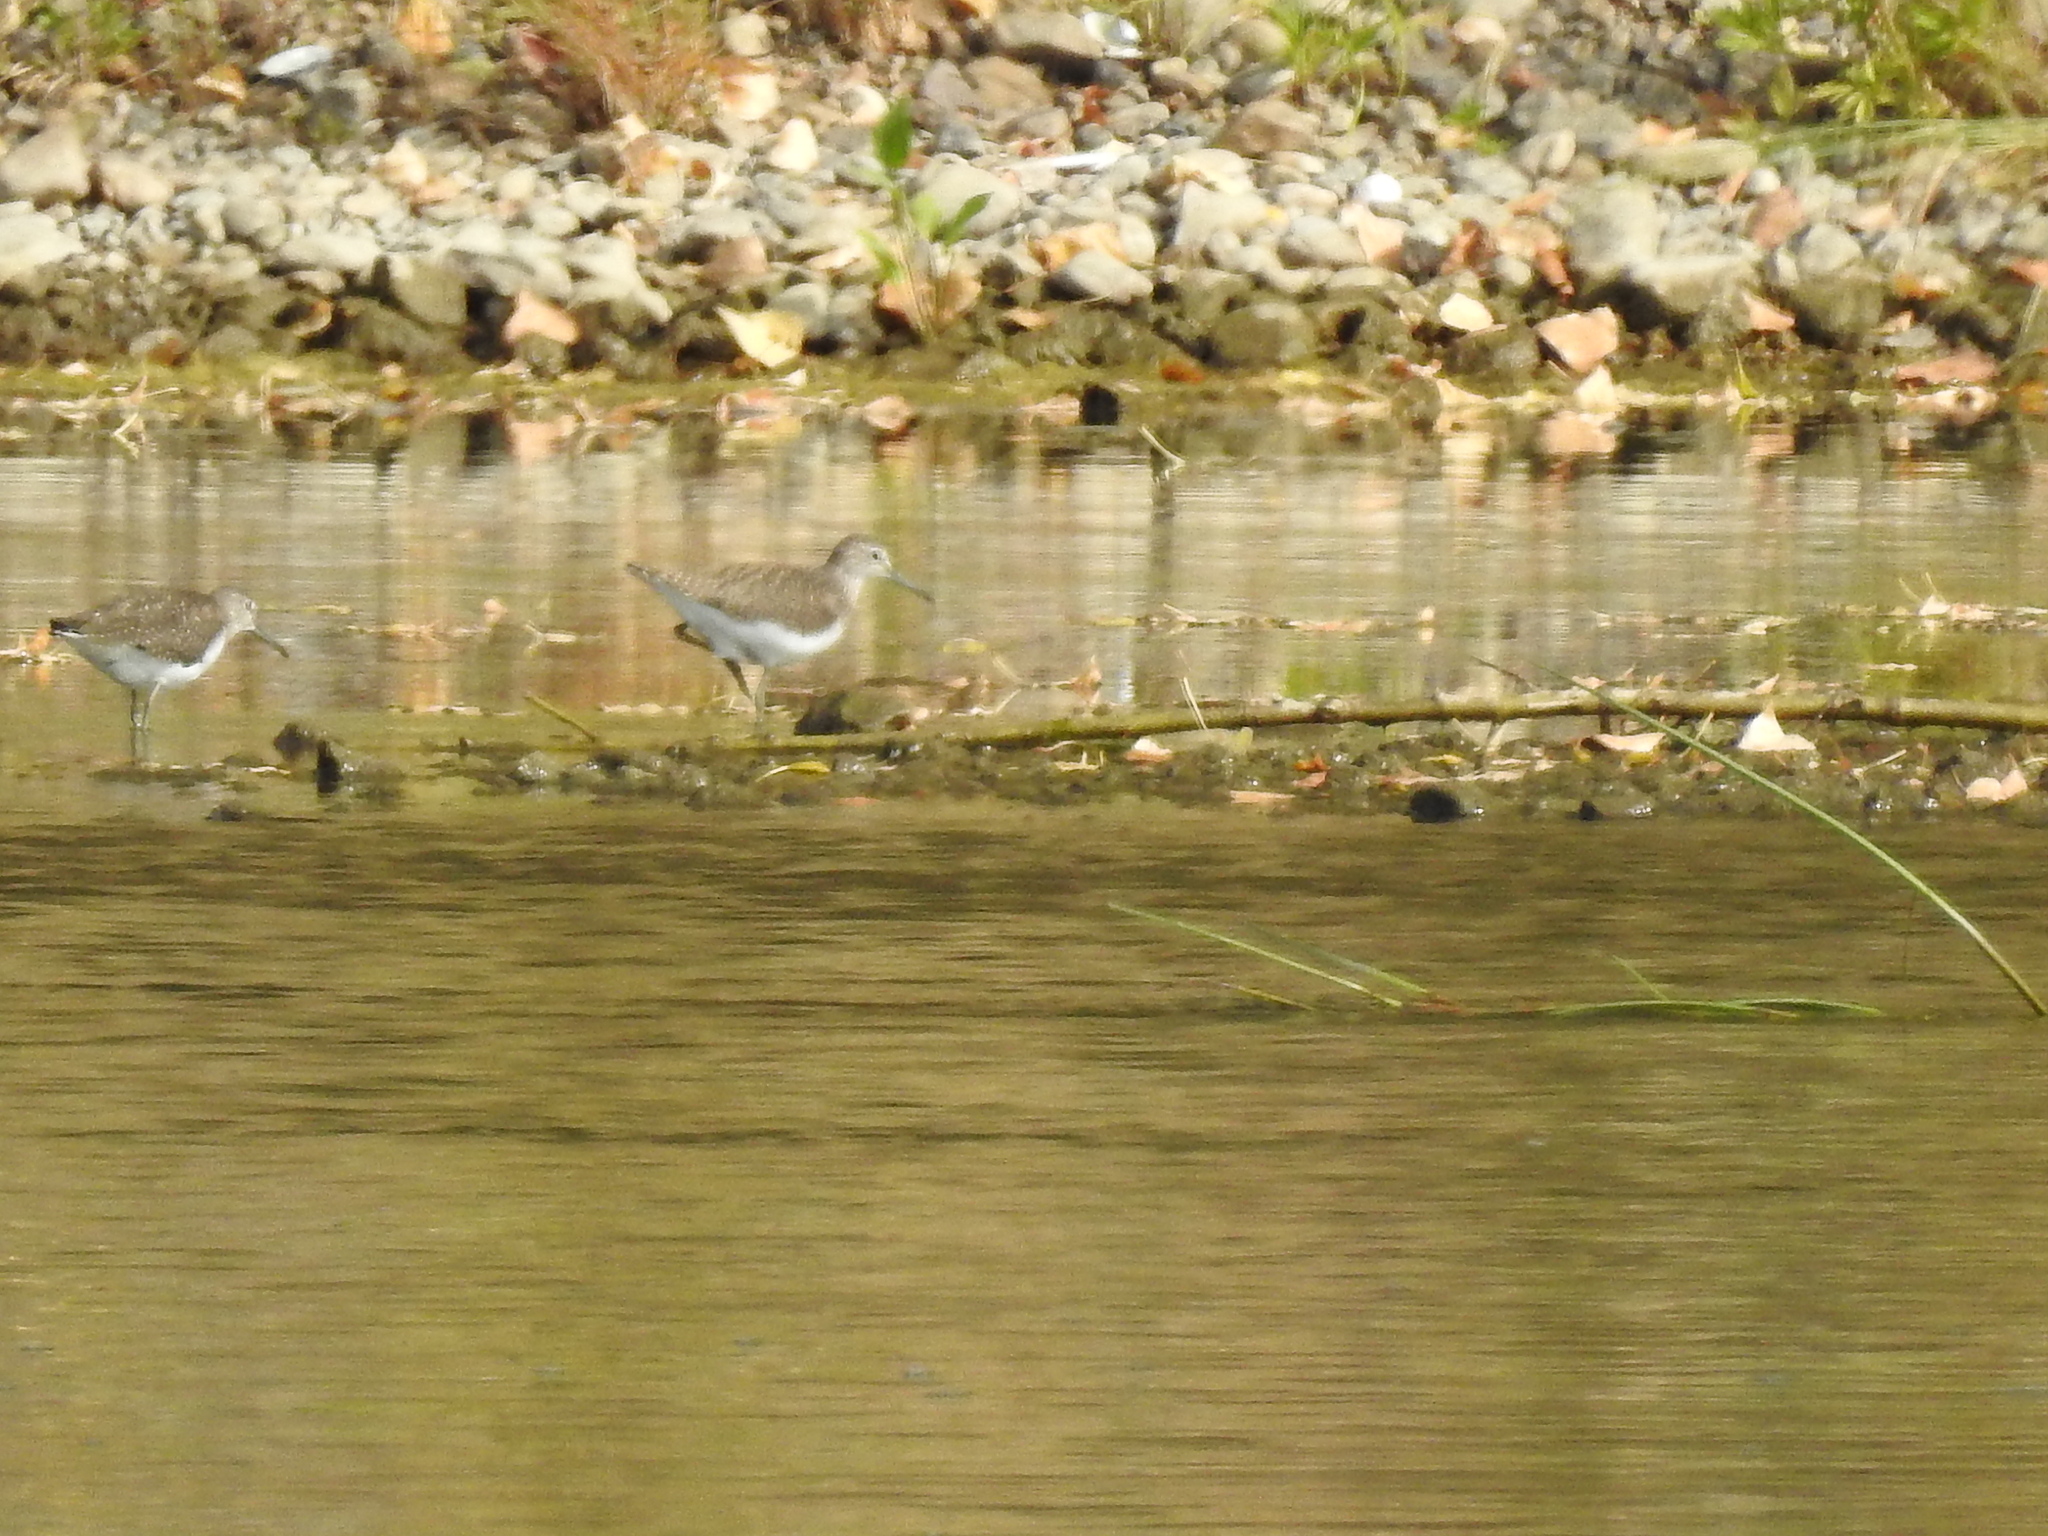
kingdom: Animalia
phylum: Chordata
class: Aves
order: Charadriiformes
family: Scolopacidae
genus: Tringa
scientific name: Tringa ochropus
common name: Green sandpiper
